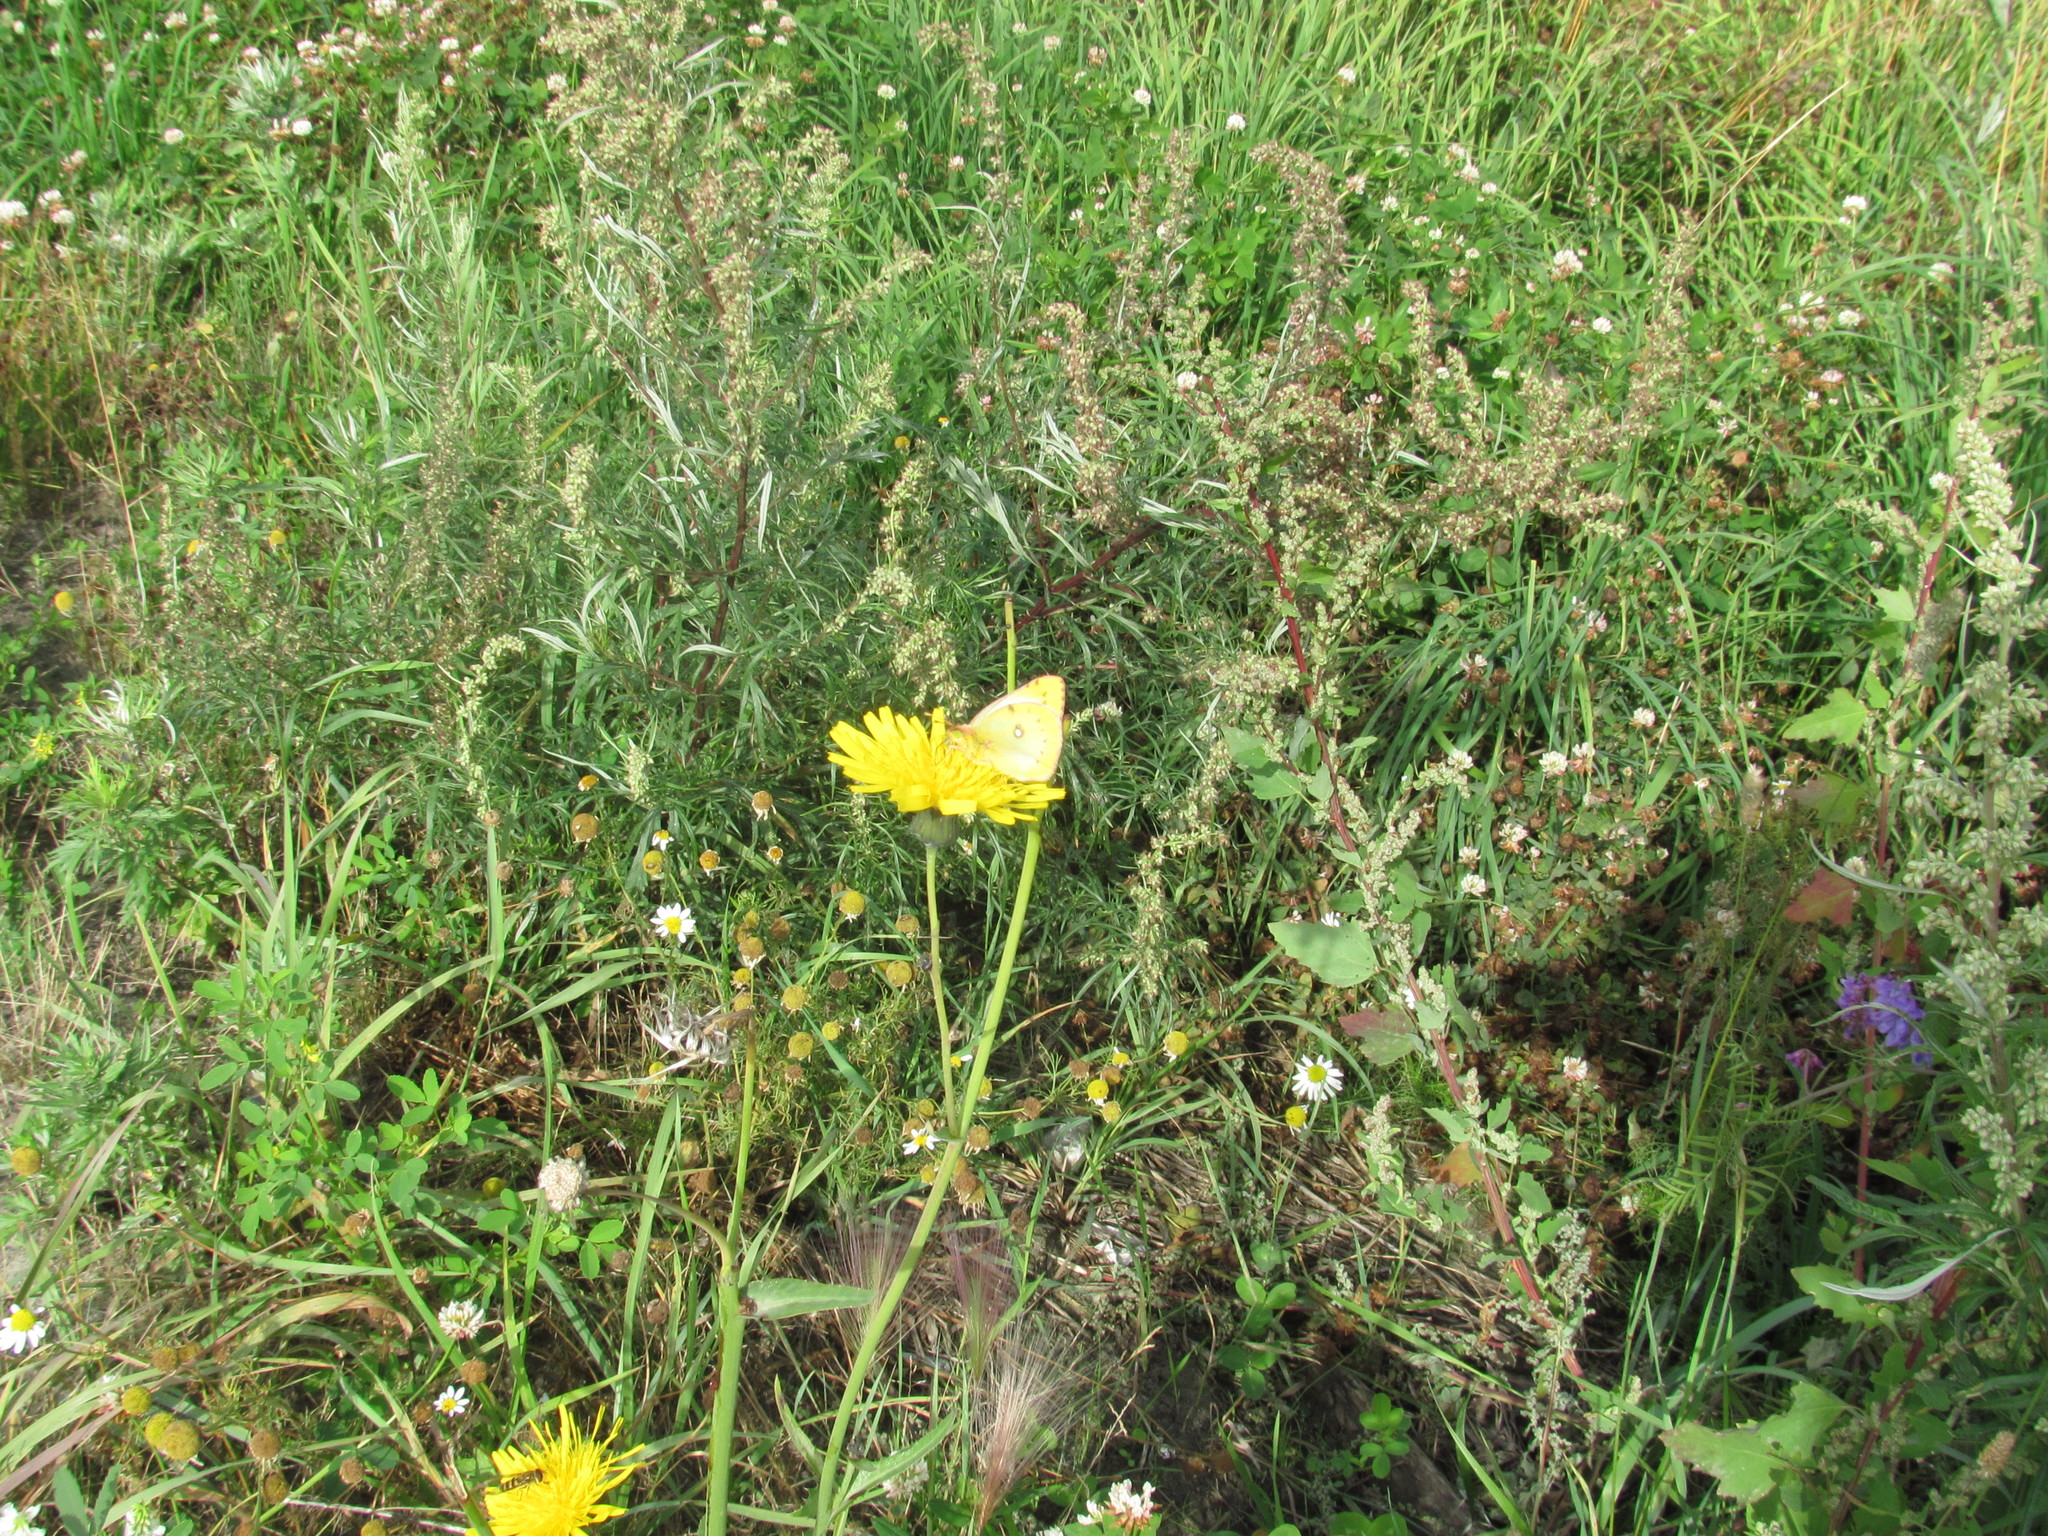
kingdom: Animalia
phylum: Arthropoda
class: Insecta
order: Lepidoptera
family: Pieridae
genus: Colias
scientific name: Colias hyale
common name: Pale clouded yellow
